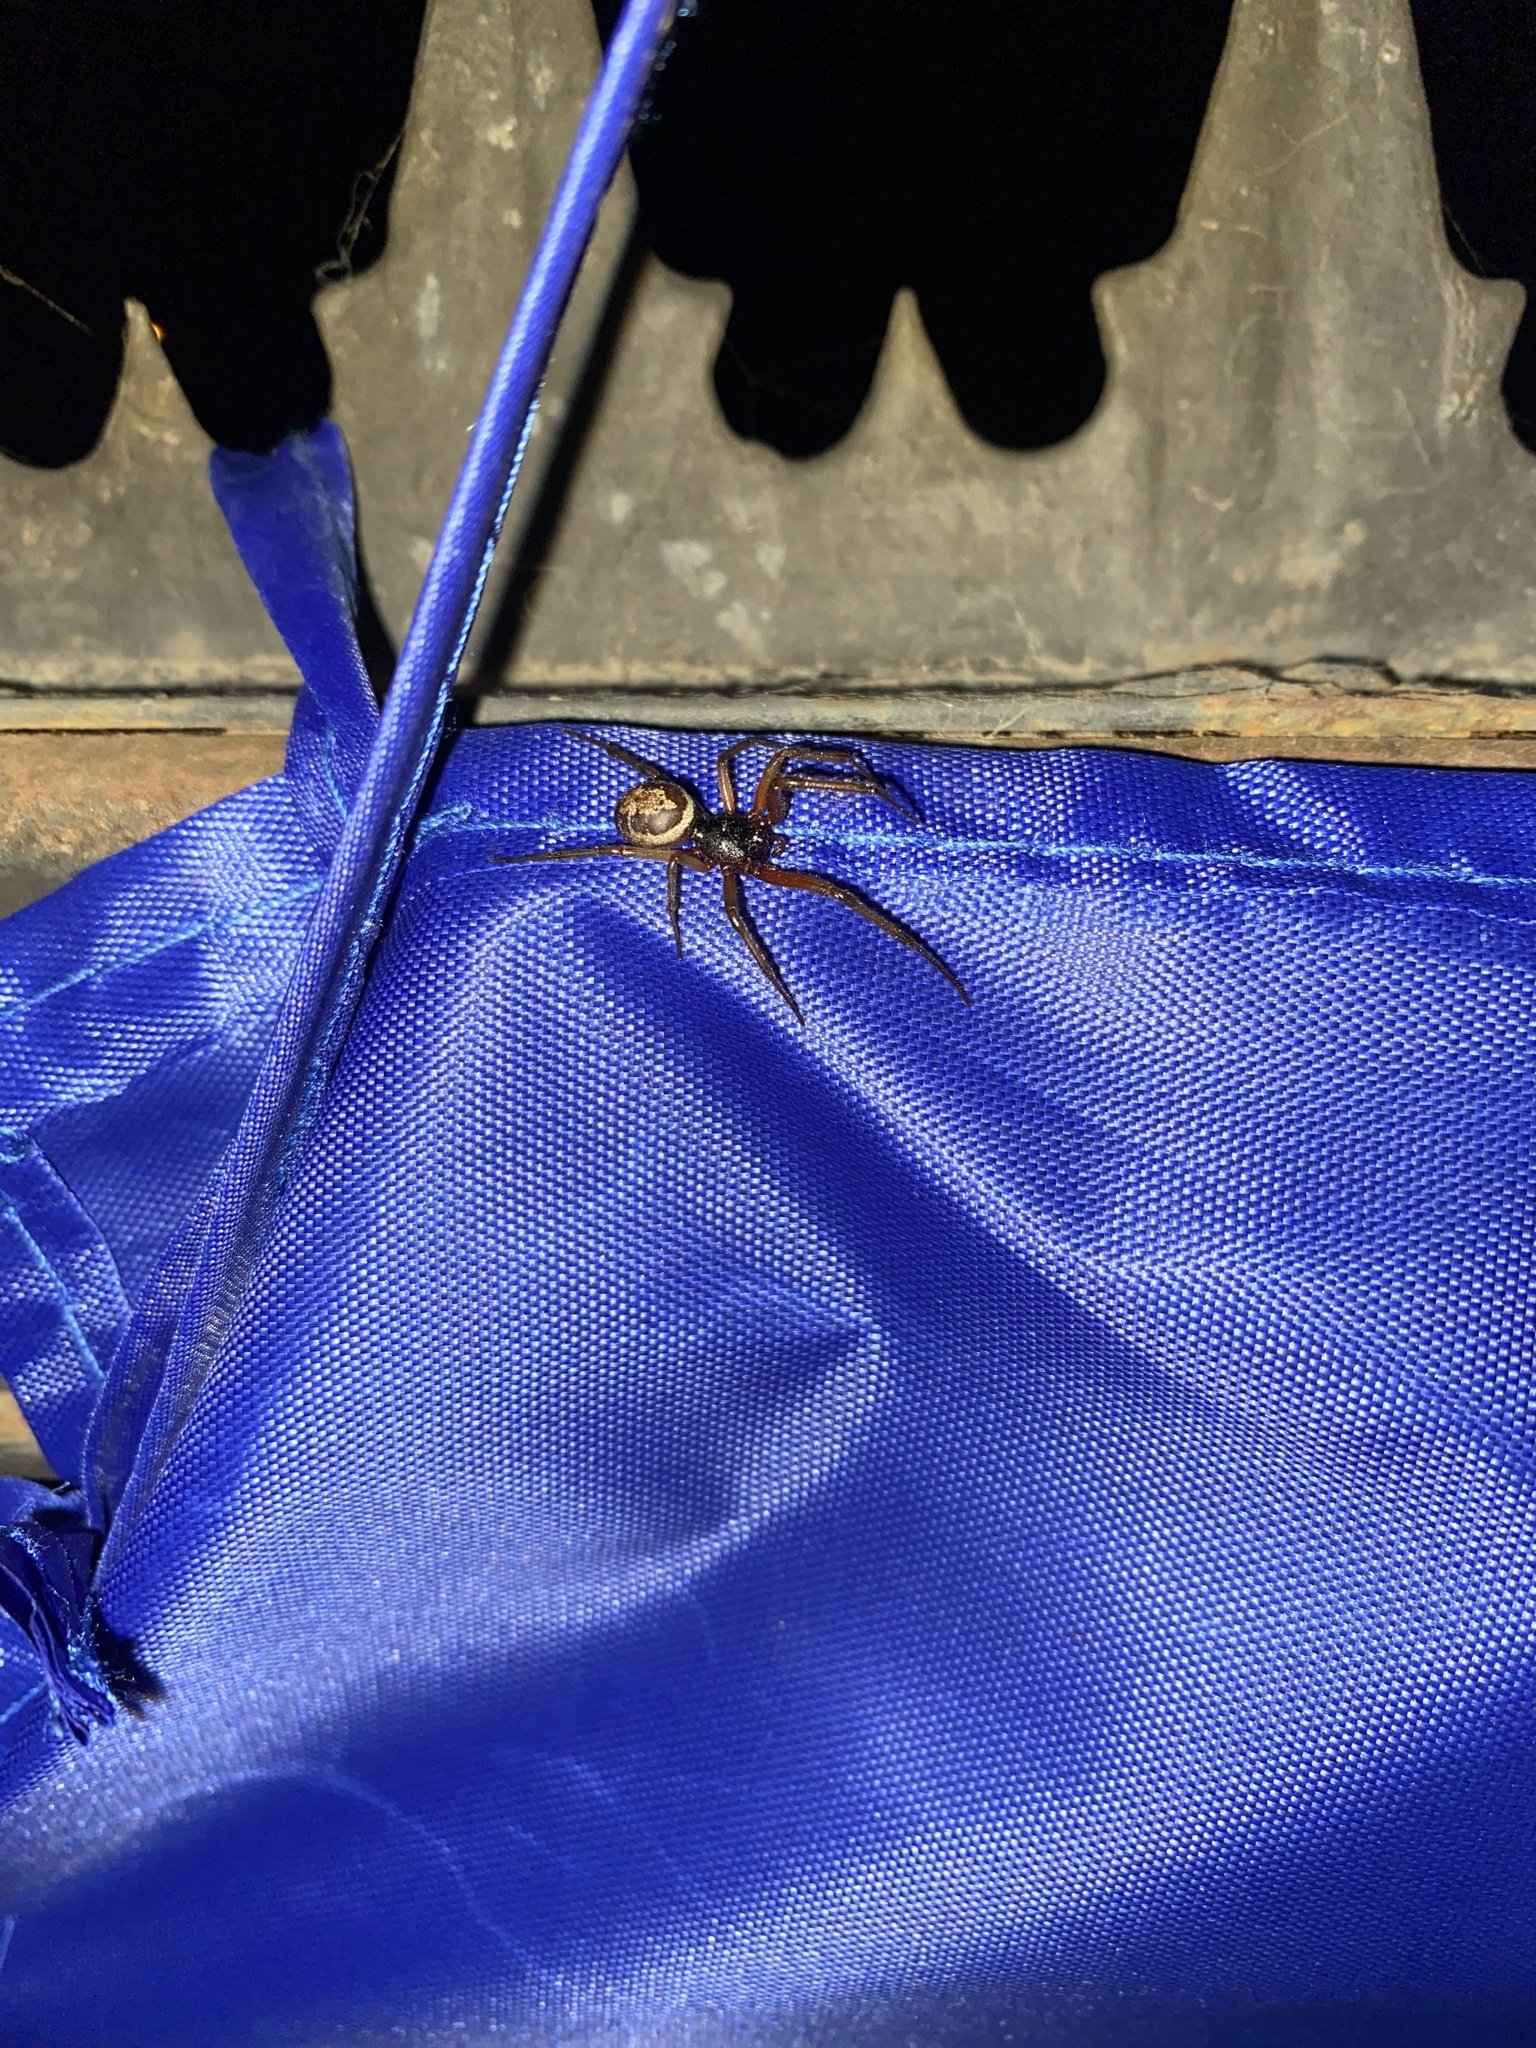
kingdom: Animalia
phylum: Arthropoda
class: Arachnida
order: Araneae
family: Theridiidae
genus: Steatoda
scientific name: Steatoda nobilis
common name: Cobweb weaver
